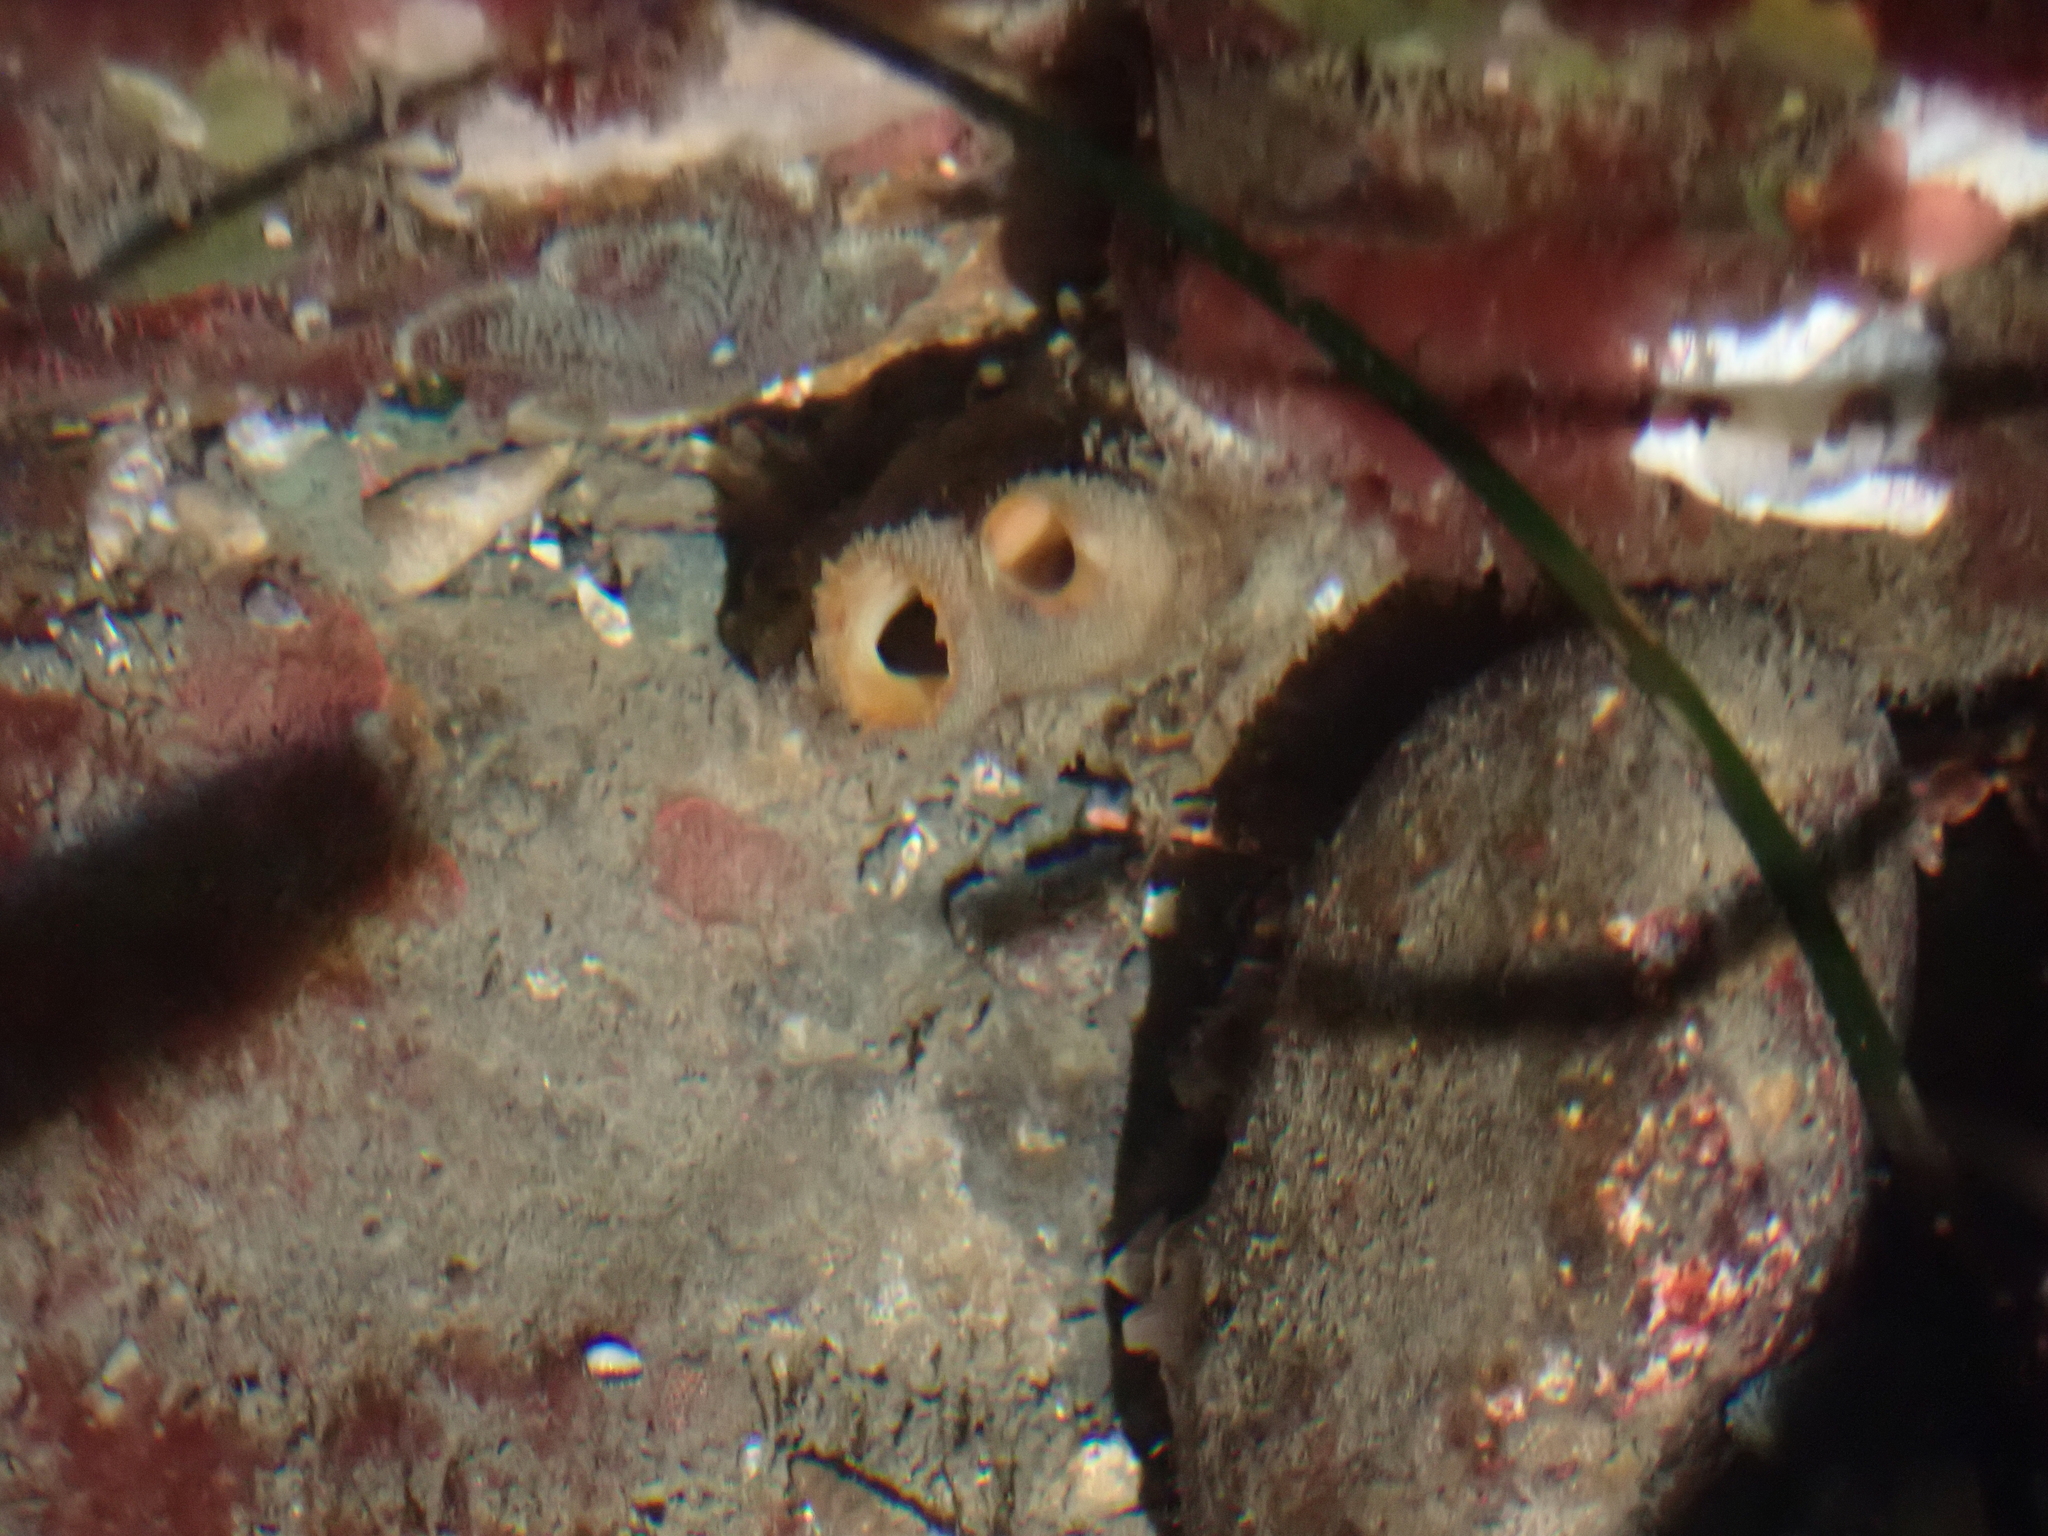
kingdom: Animalia
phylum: Mollusca
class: Bivalvia
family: Lyonsiidae
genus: Entodesma
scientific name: Entodesma navicula
